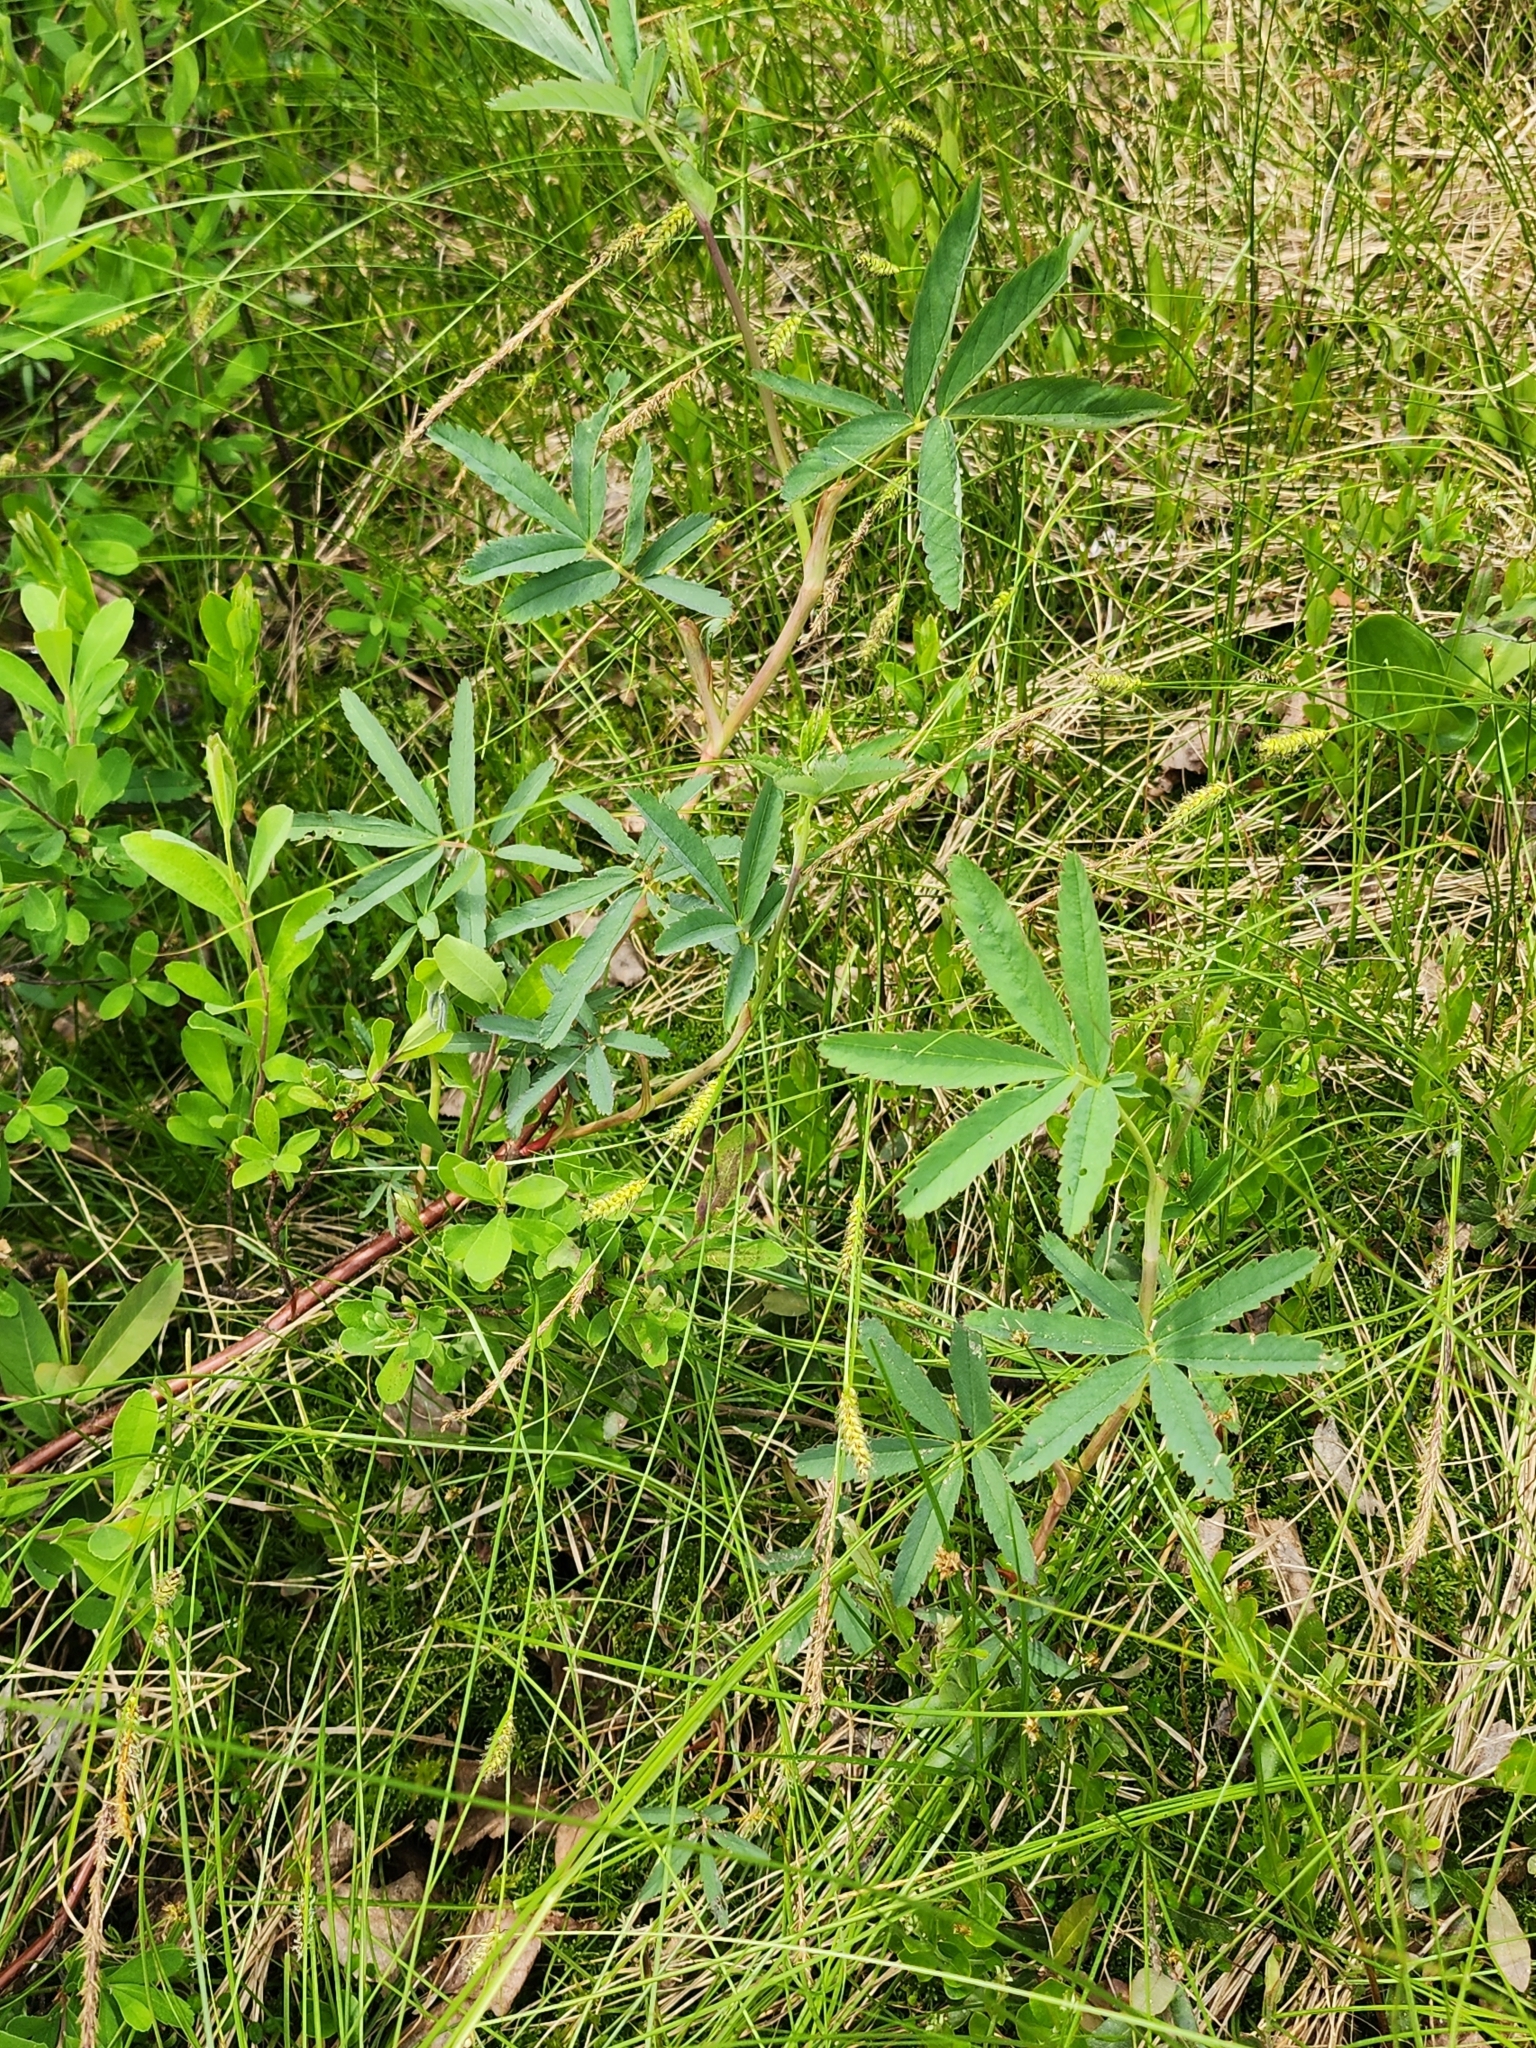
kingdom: Plantae
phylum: Tracheophyta
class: Magnoliopsida
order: Rosales
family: Rosaceae
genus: Comarum
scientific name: Comarum palustre
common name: Marsh cinquefoil
